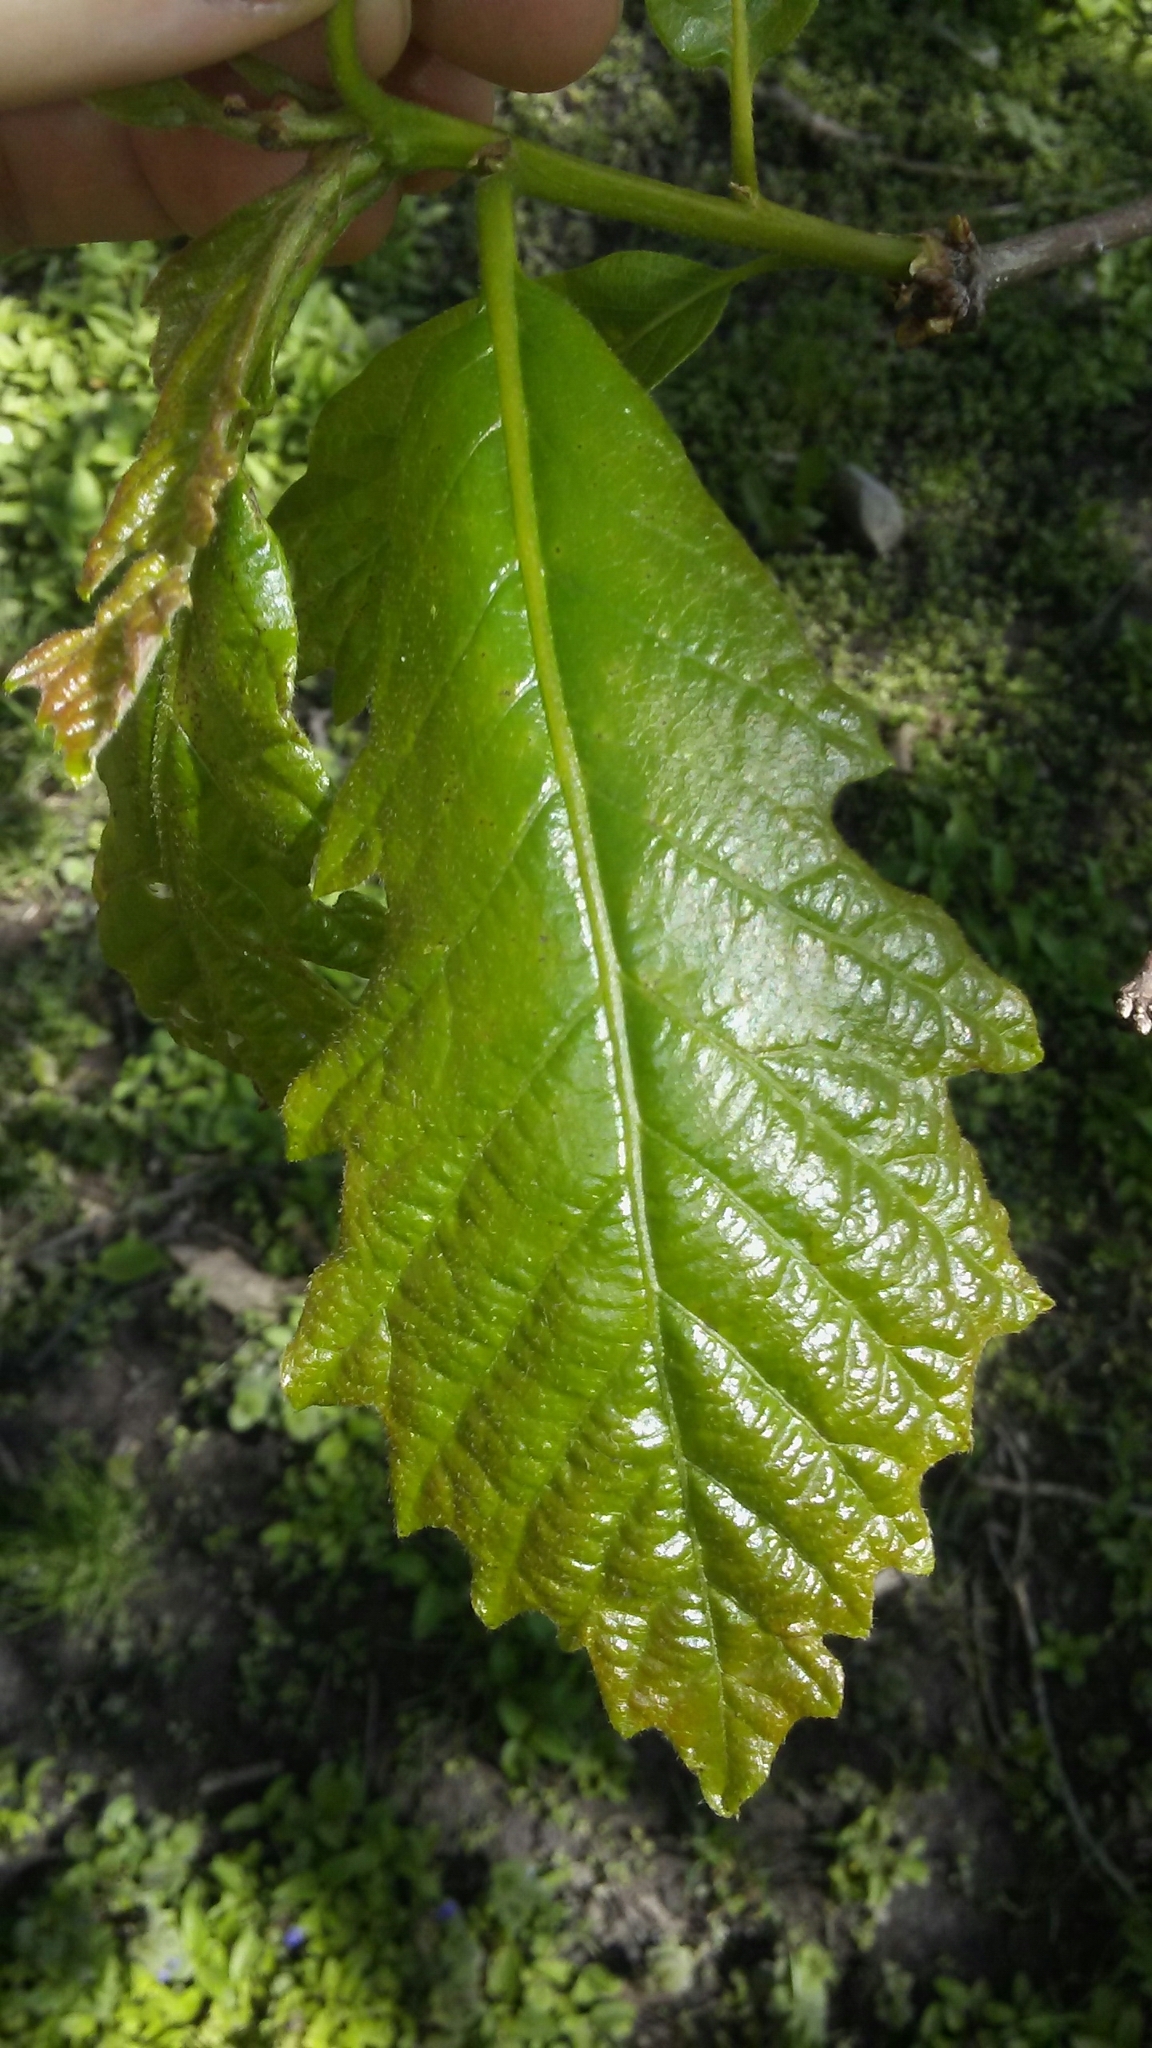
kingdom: Plantae
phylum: Tracheophyta
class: Magnoliopsida
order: Fagales
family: Fagaceae
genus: Quercus
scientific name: Quercus bicolor
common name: Swamp white oak
